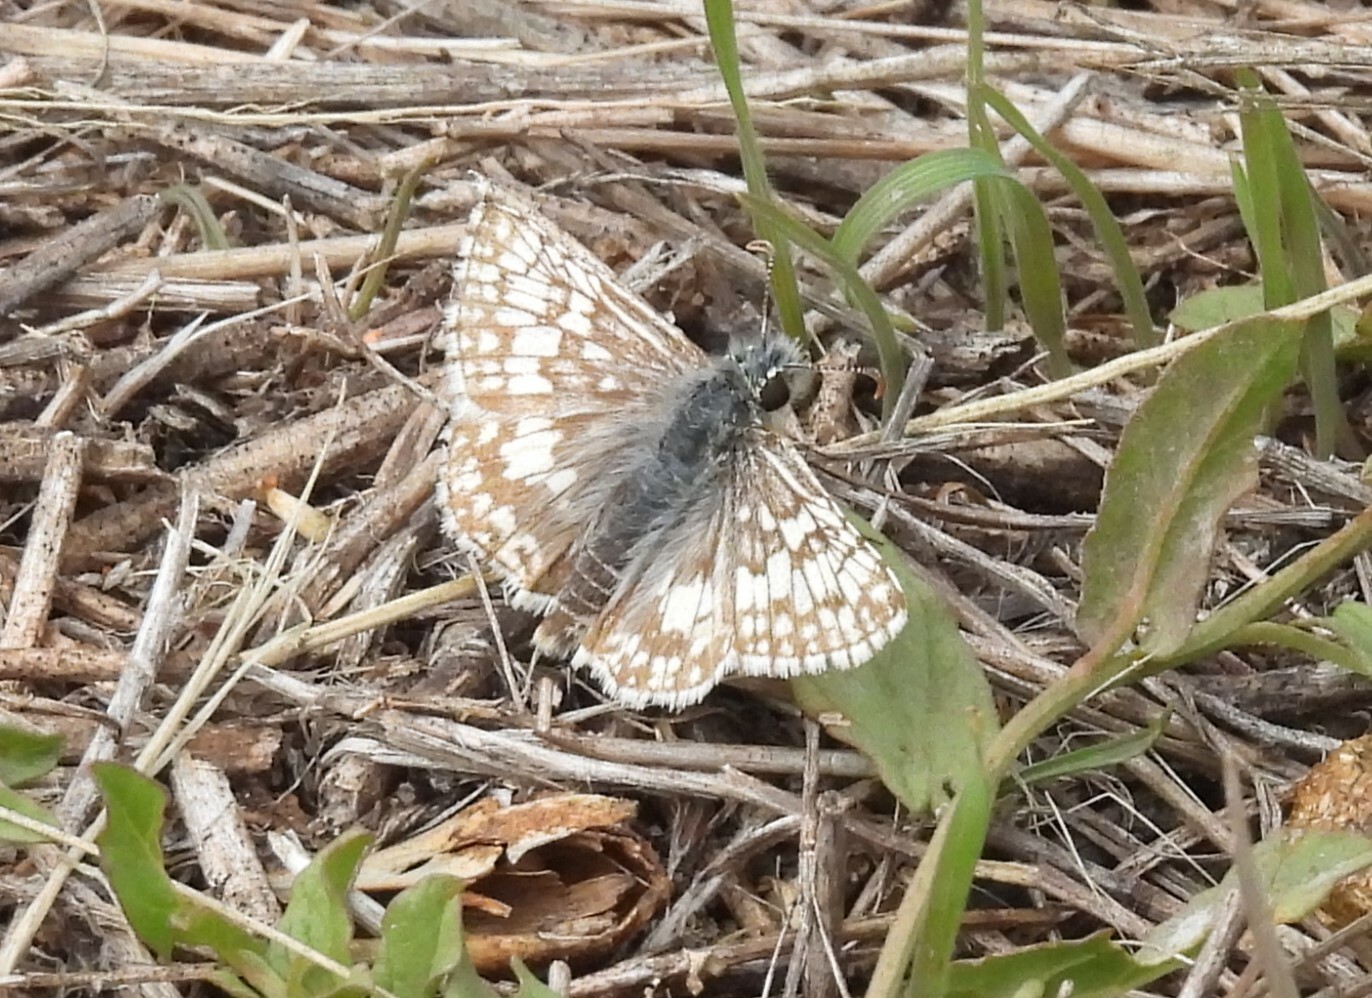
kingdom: Animalia
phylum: Arthropoda
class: Insecta
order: Lepidoptera
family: Hesperiidae
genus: Burnsius
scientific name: Burnsius communis
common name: Common checkered-skipper
